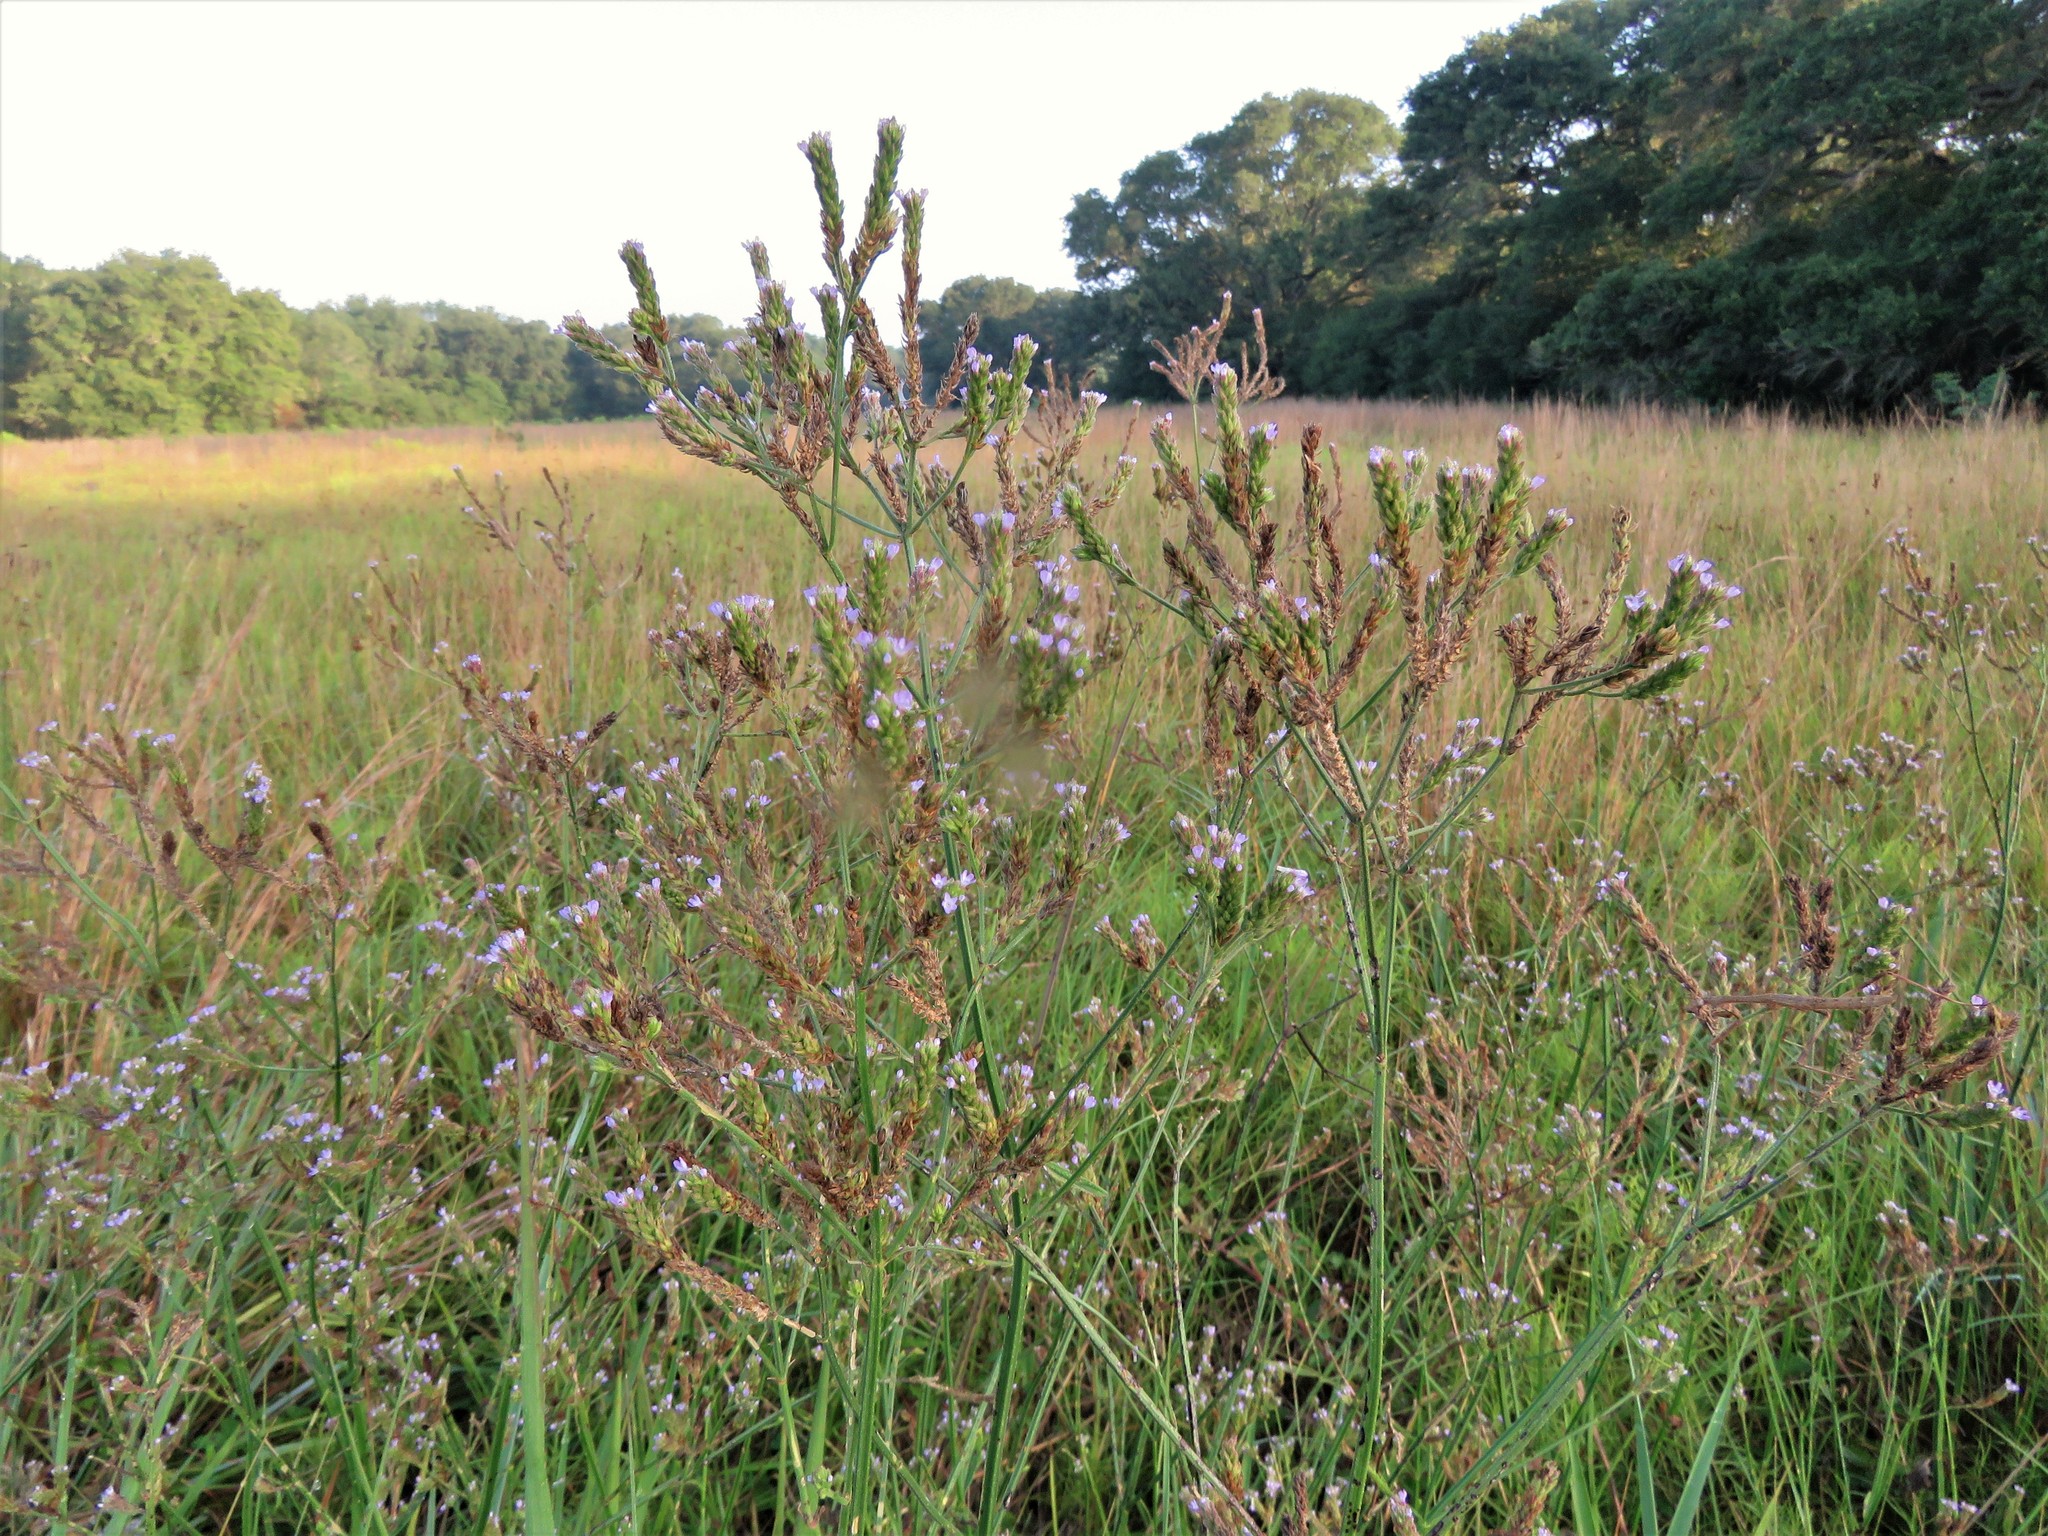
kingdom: Plantae
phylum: Tracheophyta
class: Magnoliopsida
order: Lamiales
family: Verbenaceae
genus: Verbena
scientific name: Verbena brasiliensis
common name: Brazilian vervain
